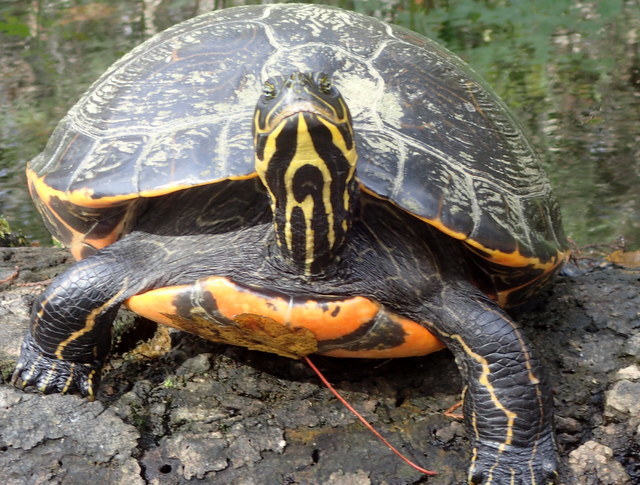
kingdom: Animalia
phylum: Chordata
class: Testudines
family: Emydidae
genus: Pseudemys
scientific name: Pseudemys concinna
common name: Eastern river cooter
